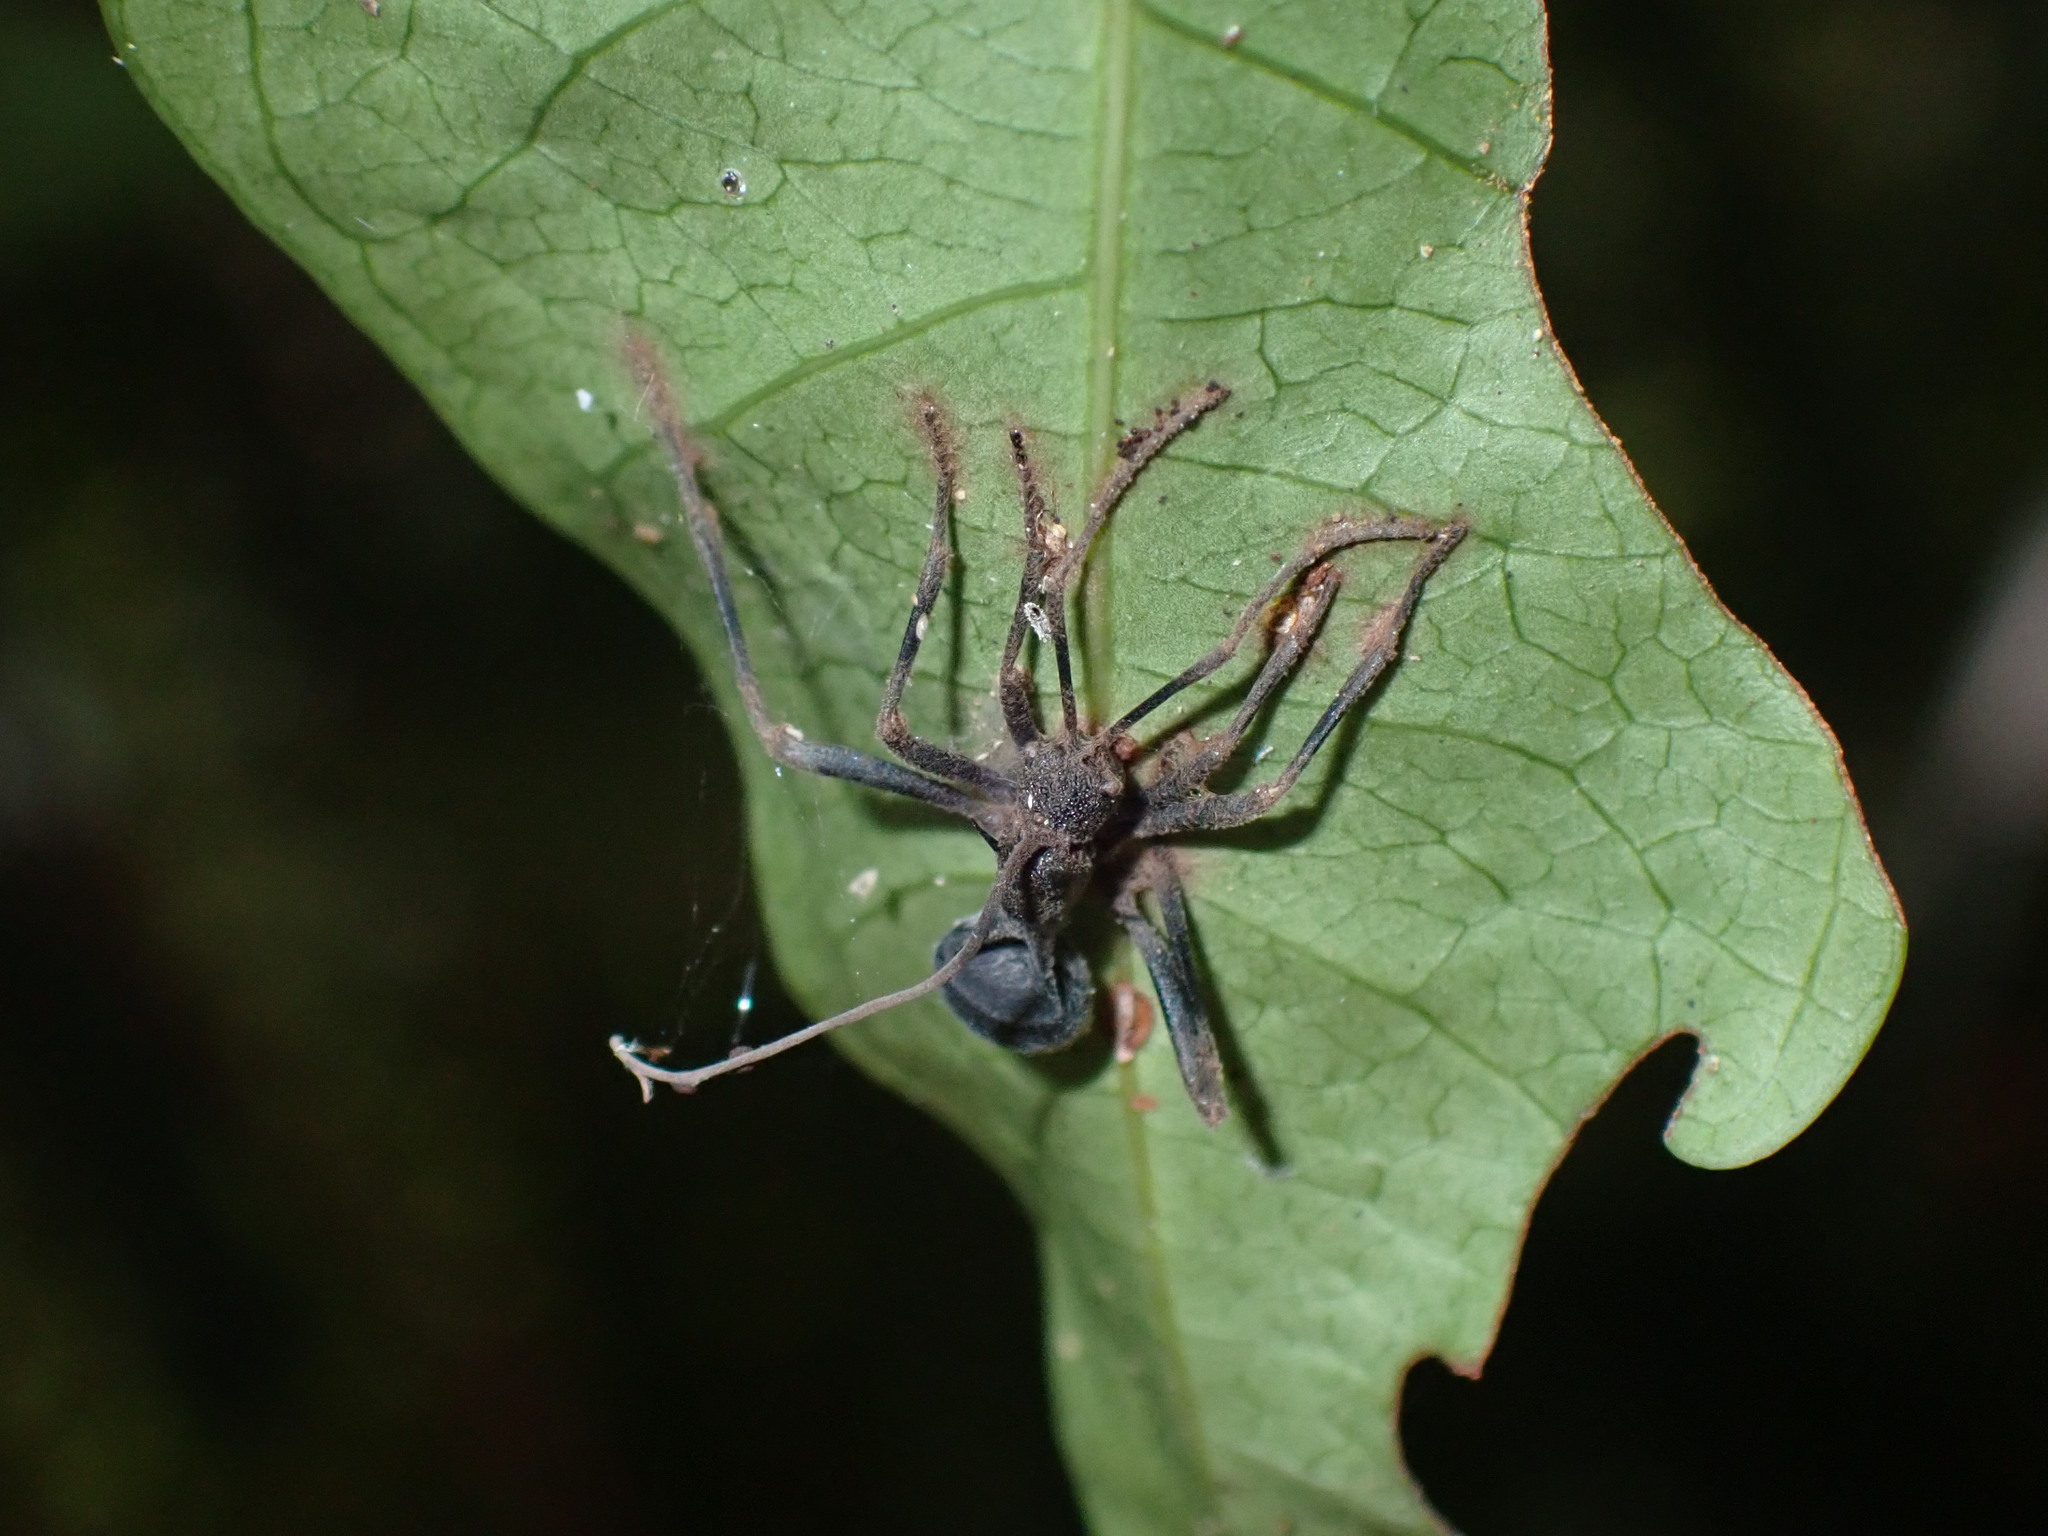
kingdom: Animalia
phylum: Arthropoda
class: Insecta
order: Hymenoptera
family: Formicidae
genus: Polyrhachis
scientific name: Polyrhachis armata
